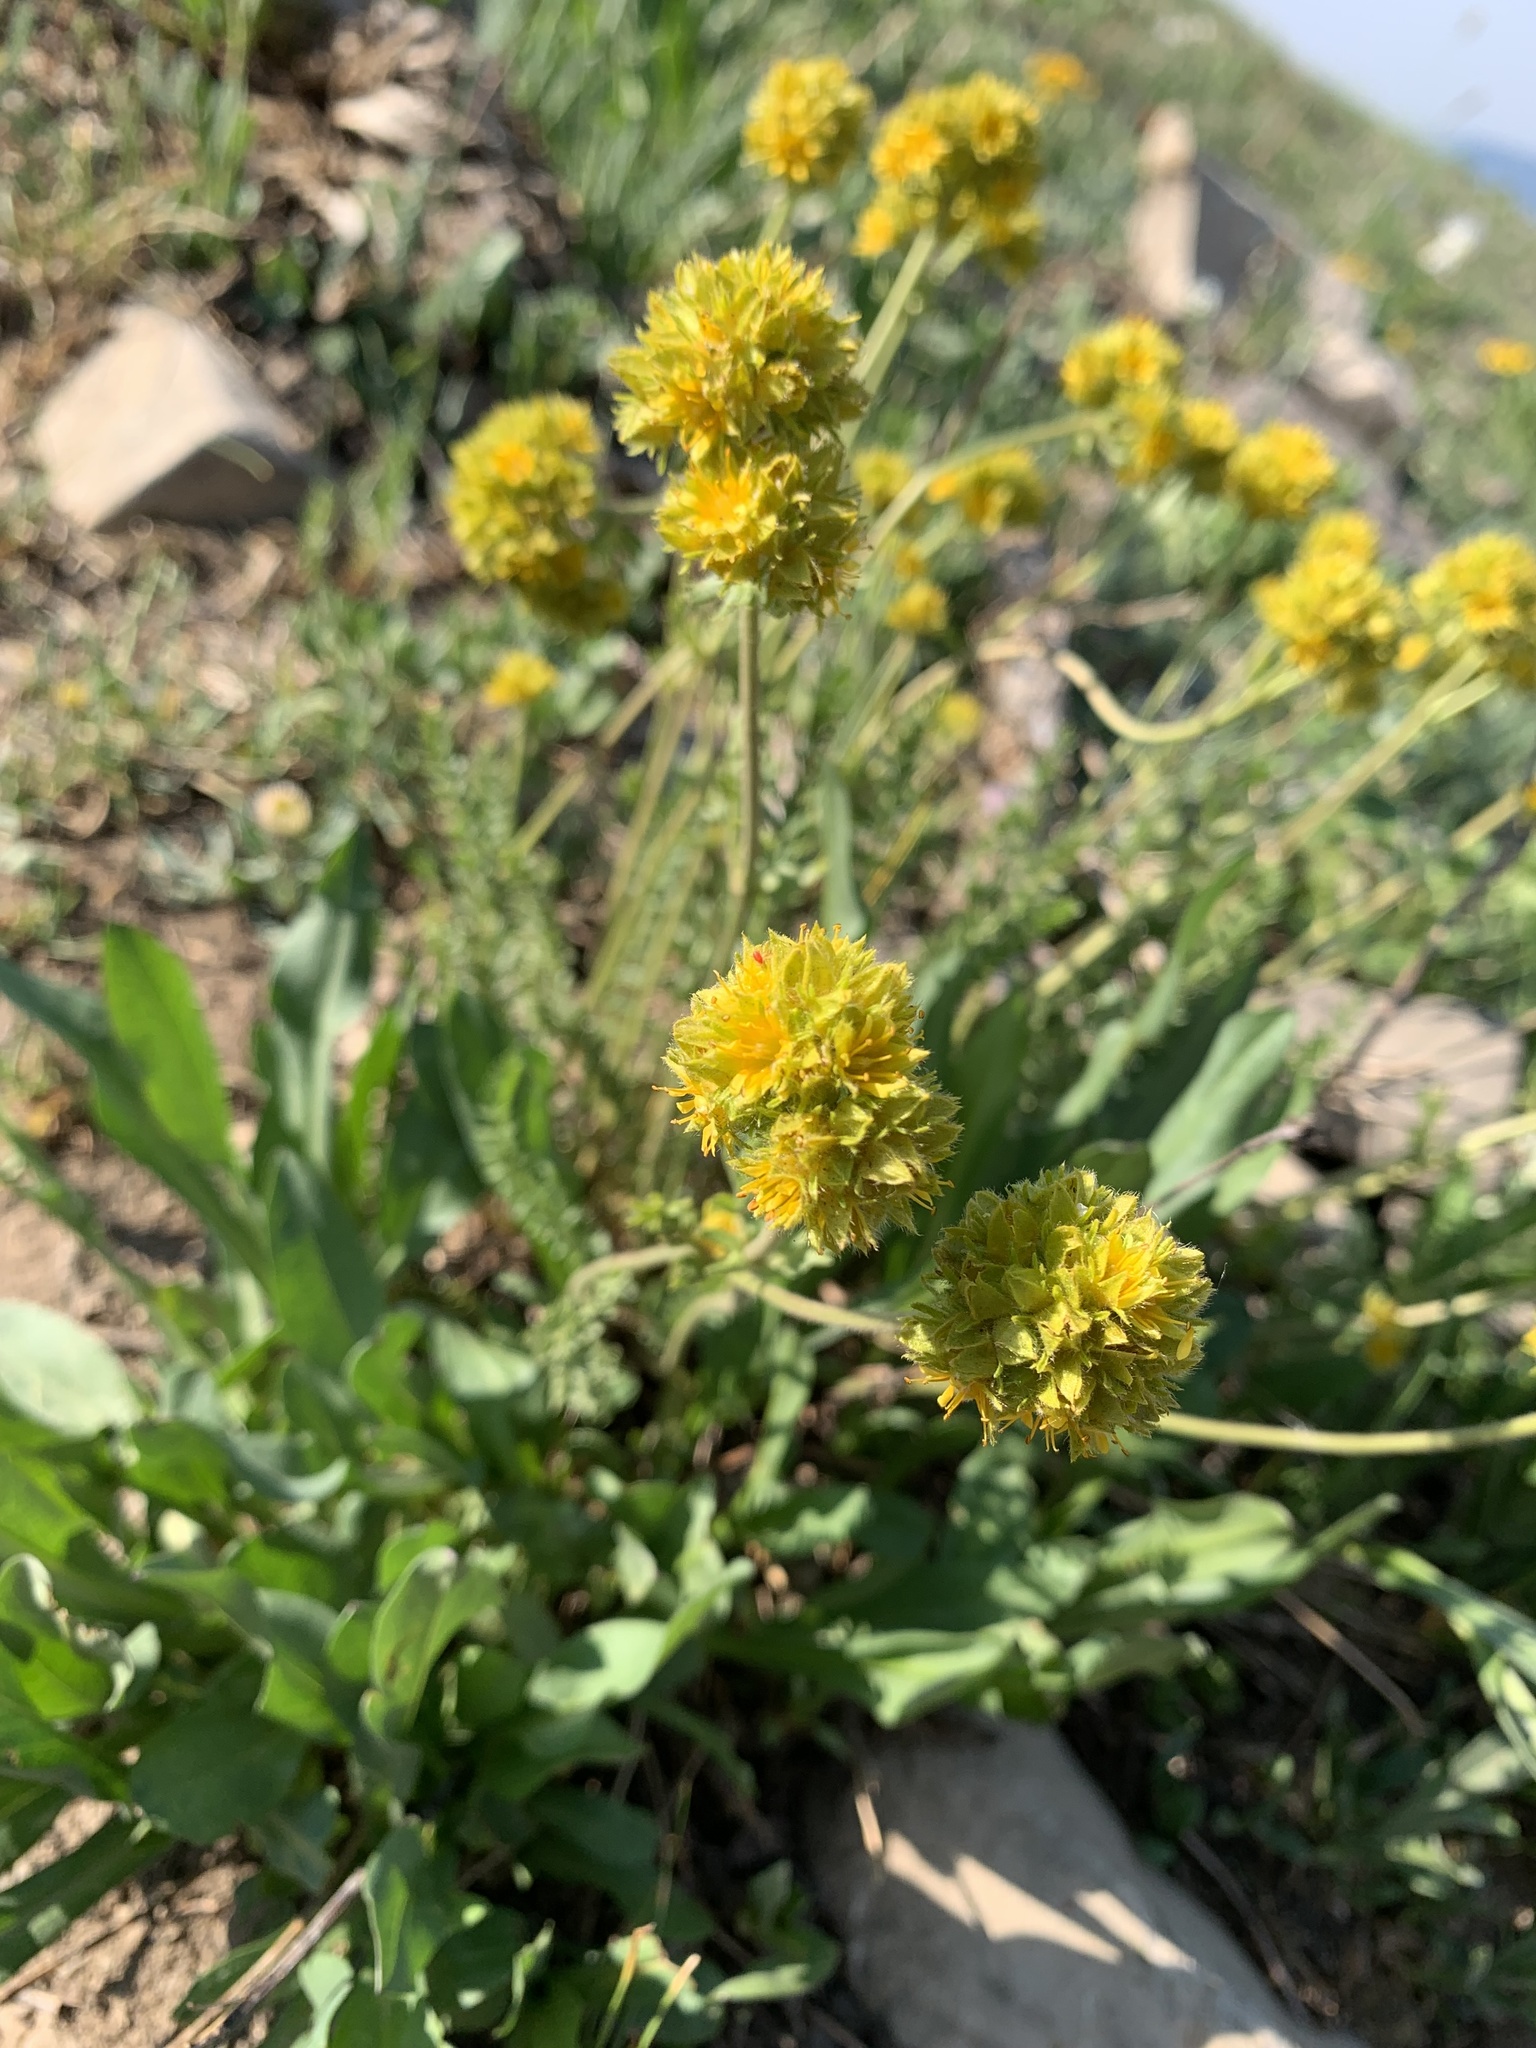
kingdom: Plantae
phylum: Tracheophyta
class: Magnoliopsida
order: Rosales
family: Rosaceae
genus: Potentilla
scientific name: Potentilla gordonii
